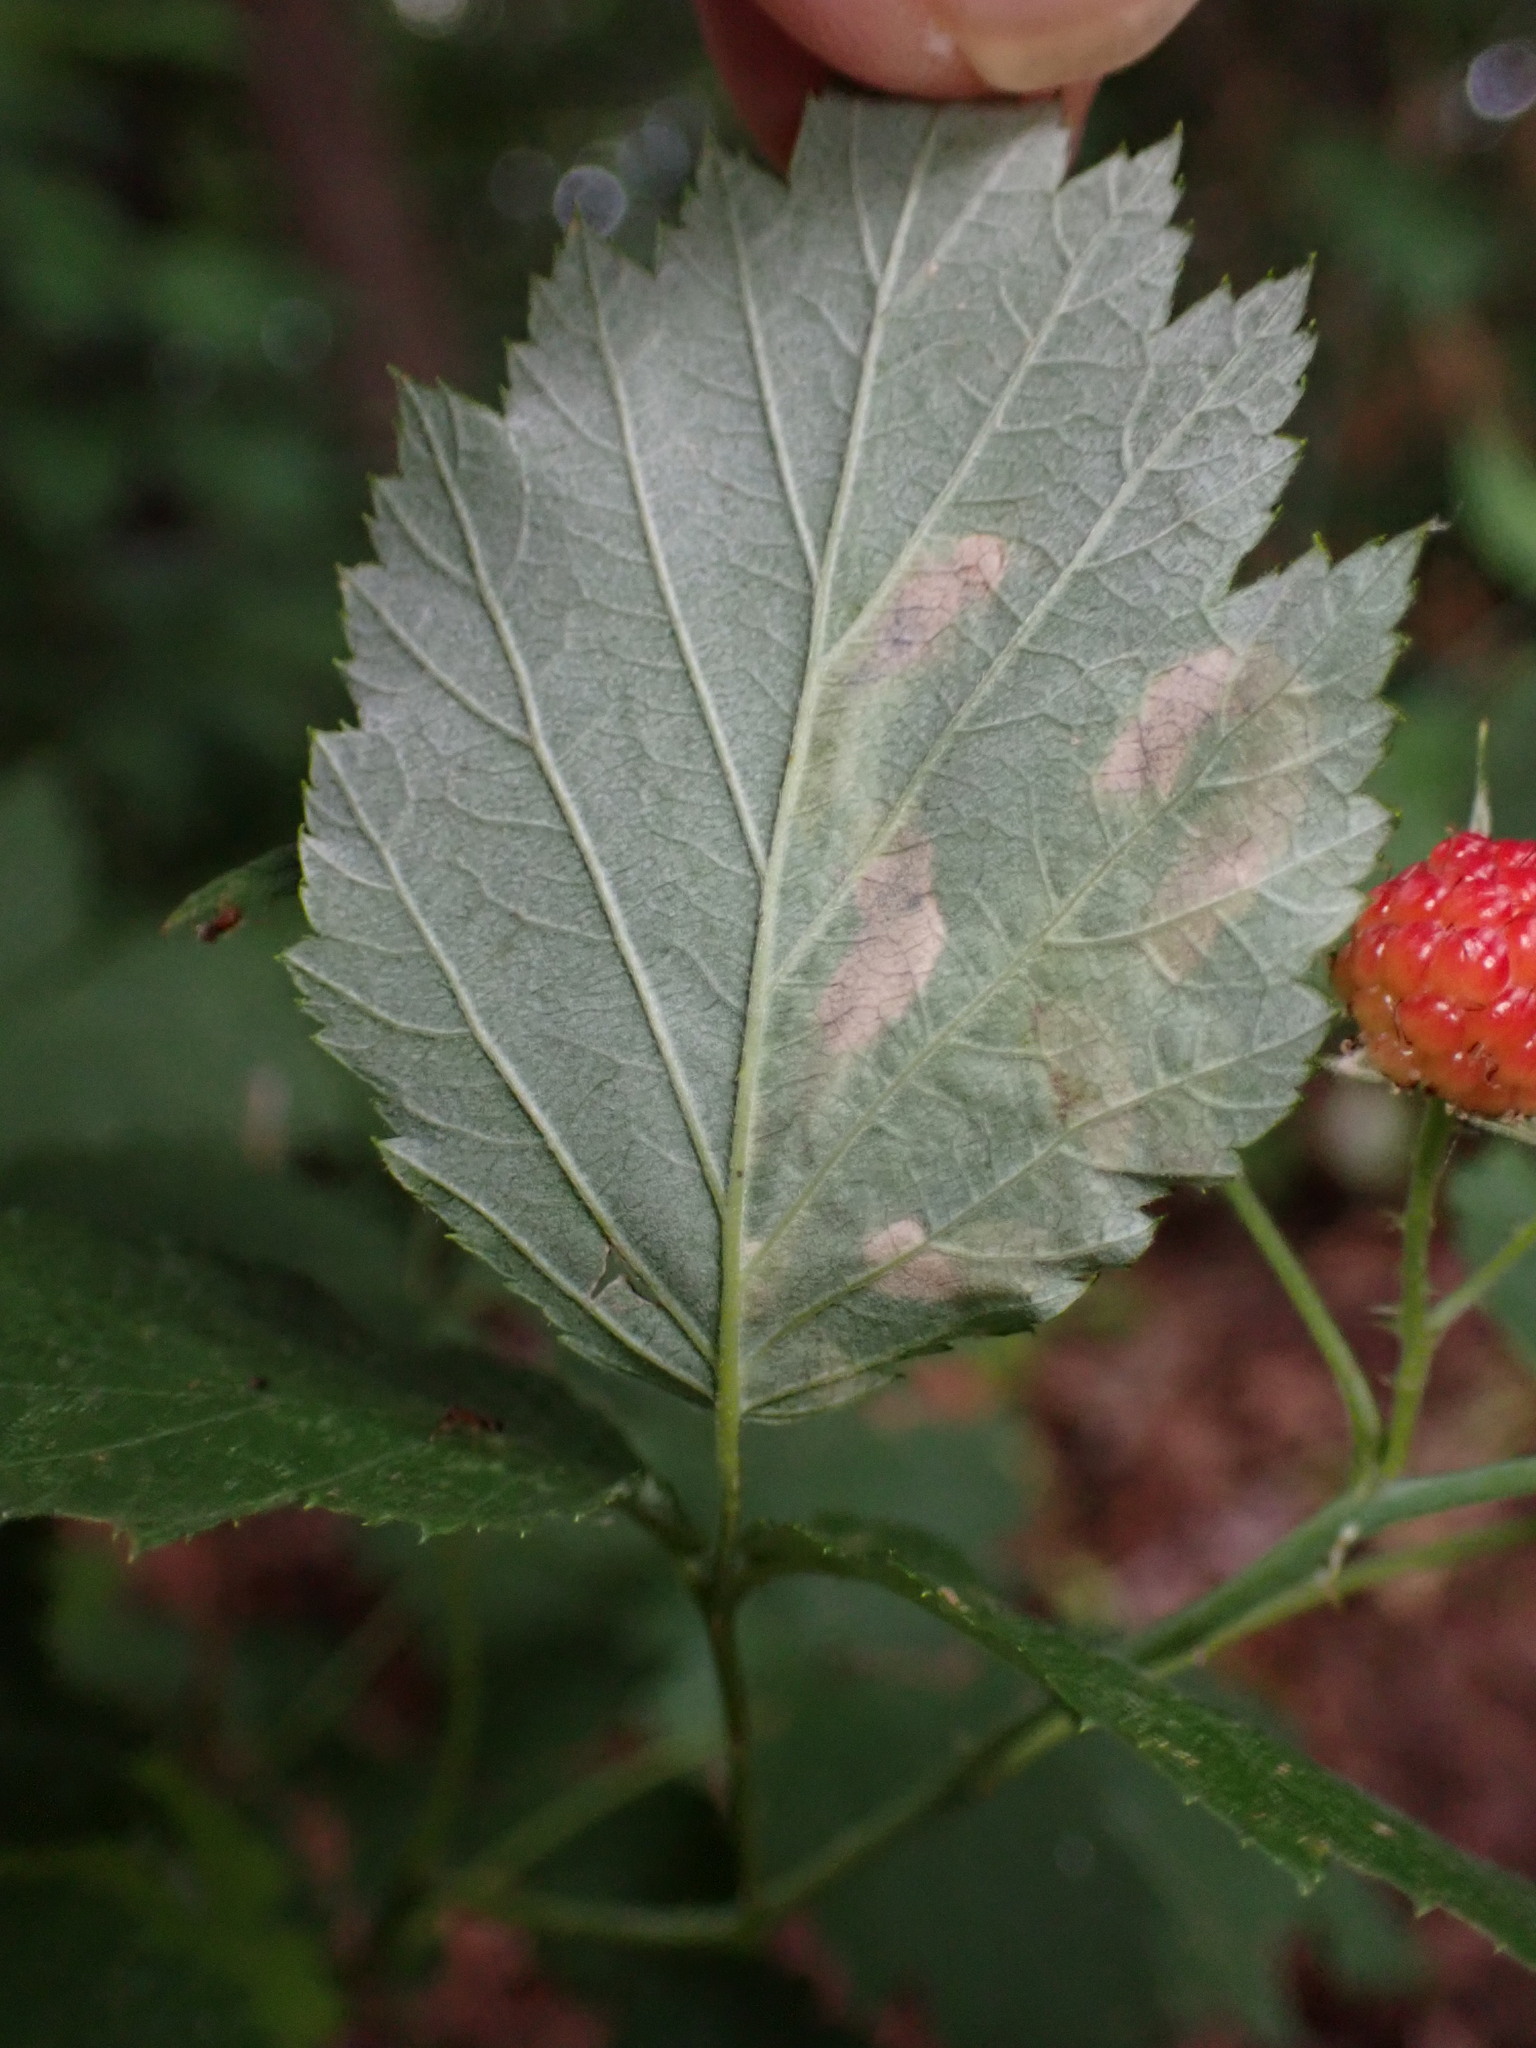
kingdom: Animalia
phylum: Arthropoda
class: Insecta
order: Diptera
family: Agromyzidae
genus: Agromyza
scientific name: Agromyza vockerothi
